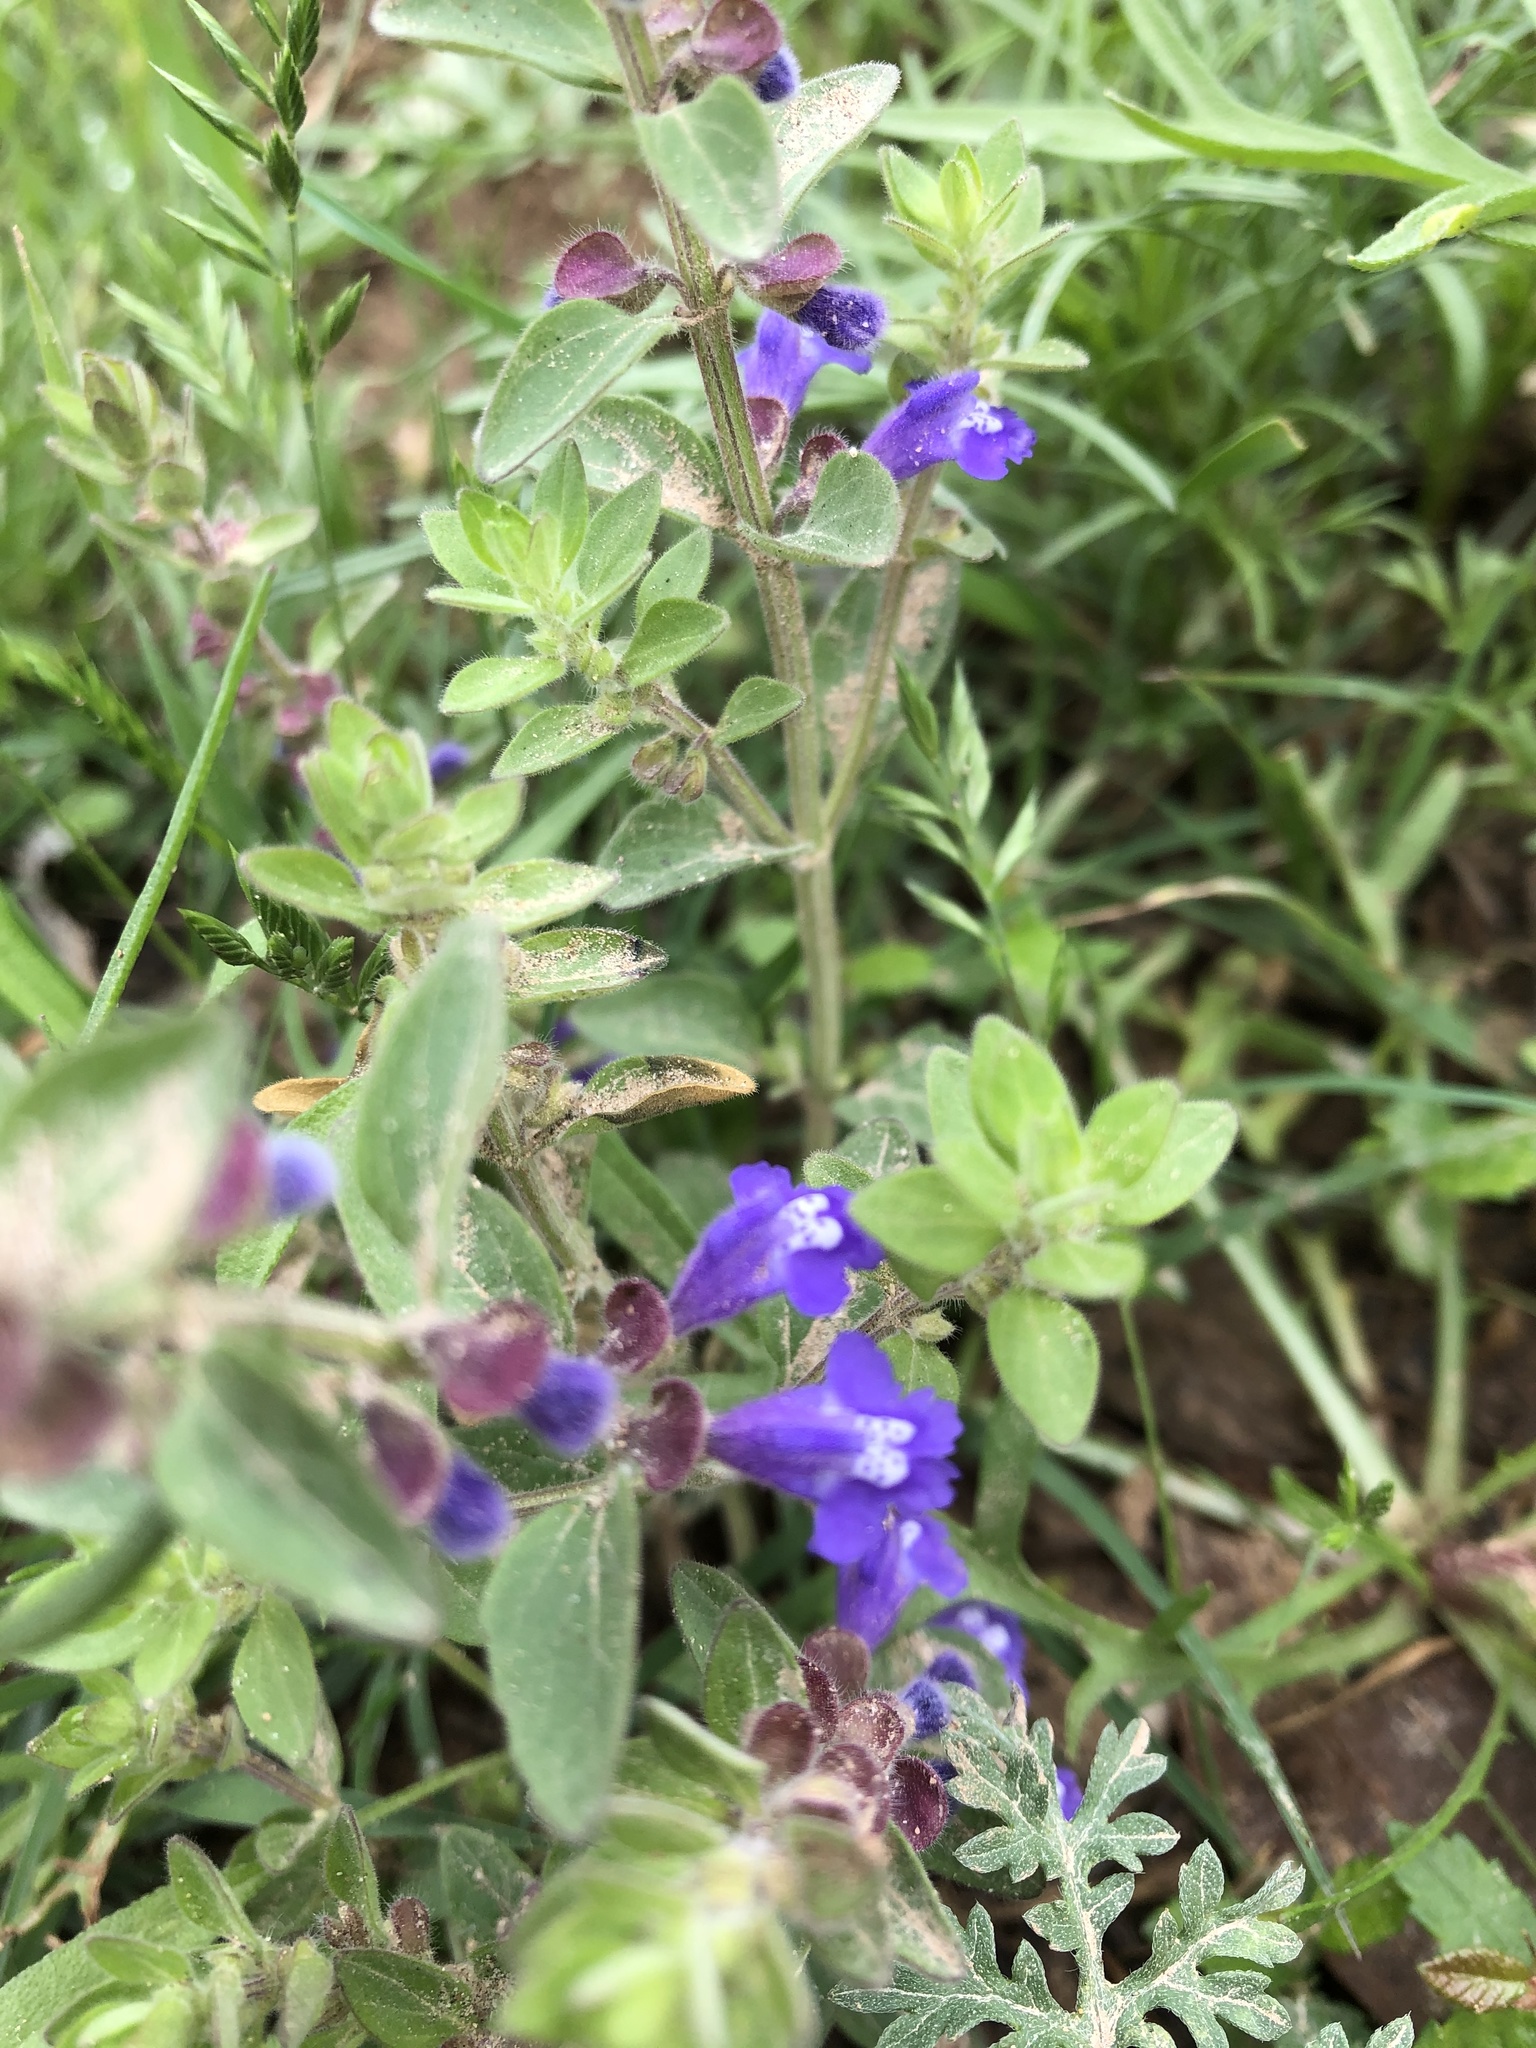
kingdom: Plantae
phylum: Tracheophyta
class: Magnoliopsida
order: Lamiales
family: Lamiaceae
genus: Scutellaria
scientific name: Scutellaria drummondii
